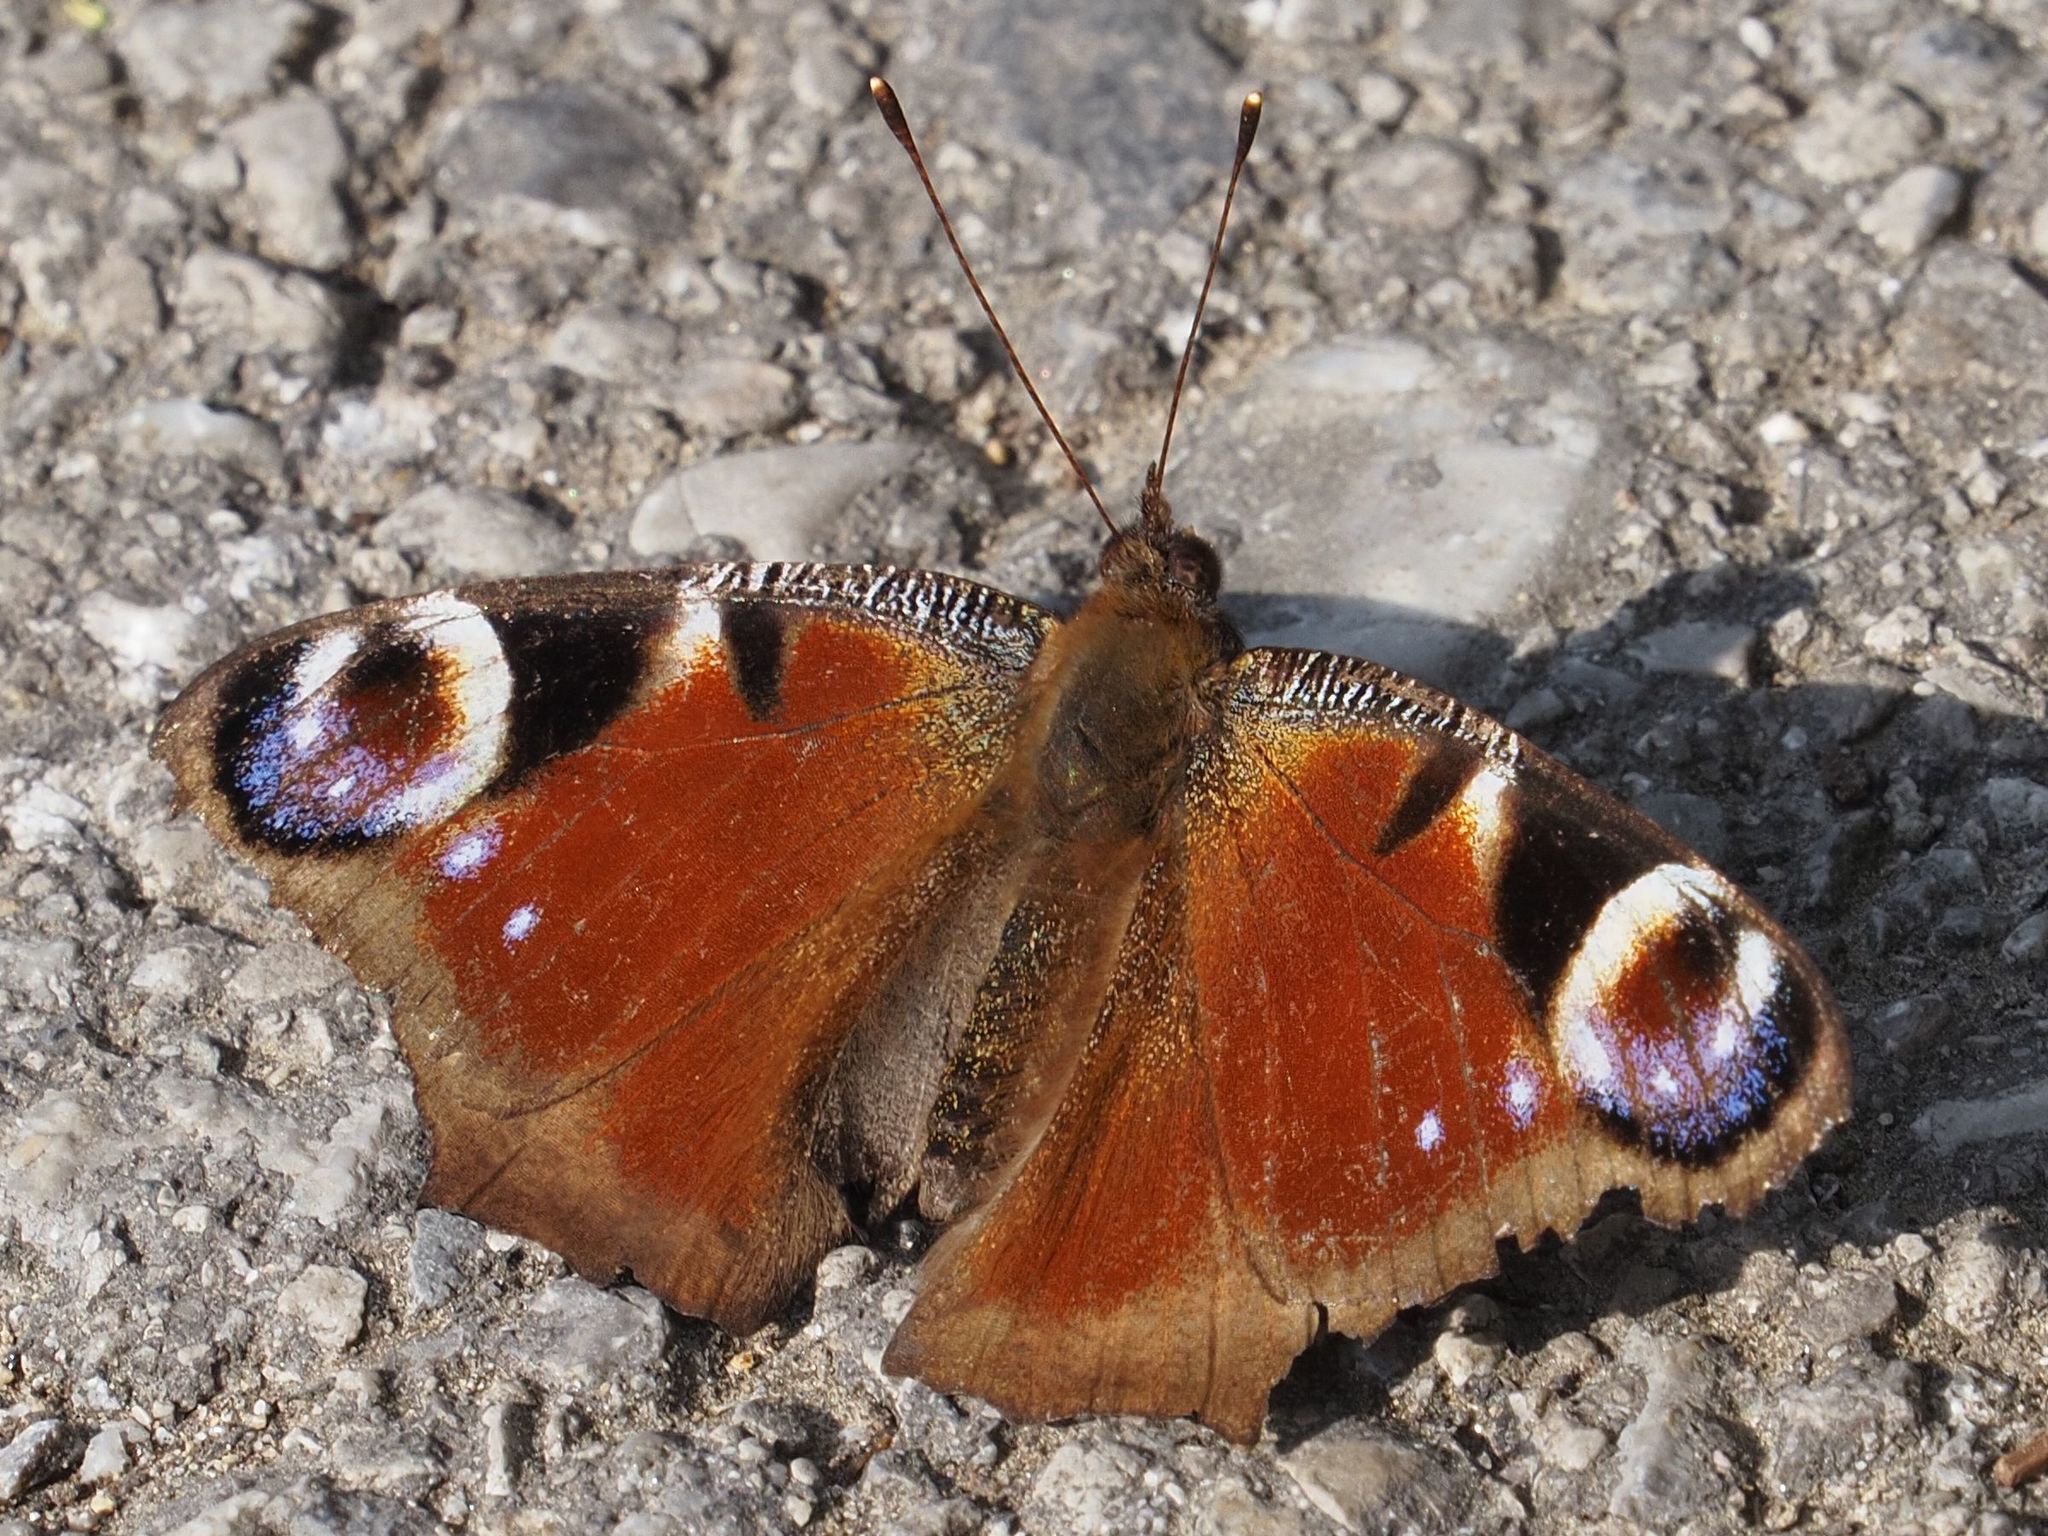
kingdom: Animalia
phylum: Arthropoda
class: Insecta
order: Lepidoptera
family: Nymphalidae
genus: Aglais
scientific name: Aglais io
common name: Peacock
